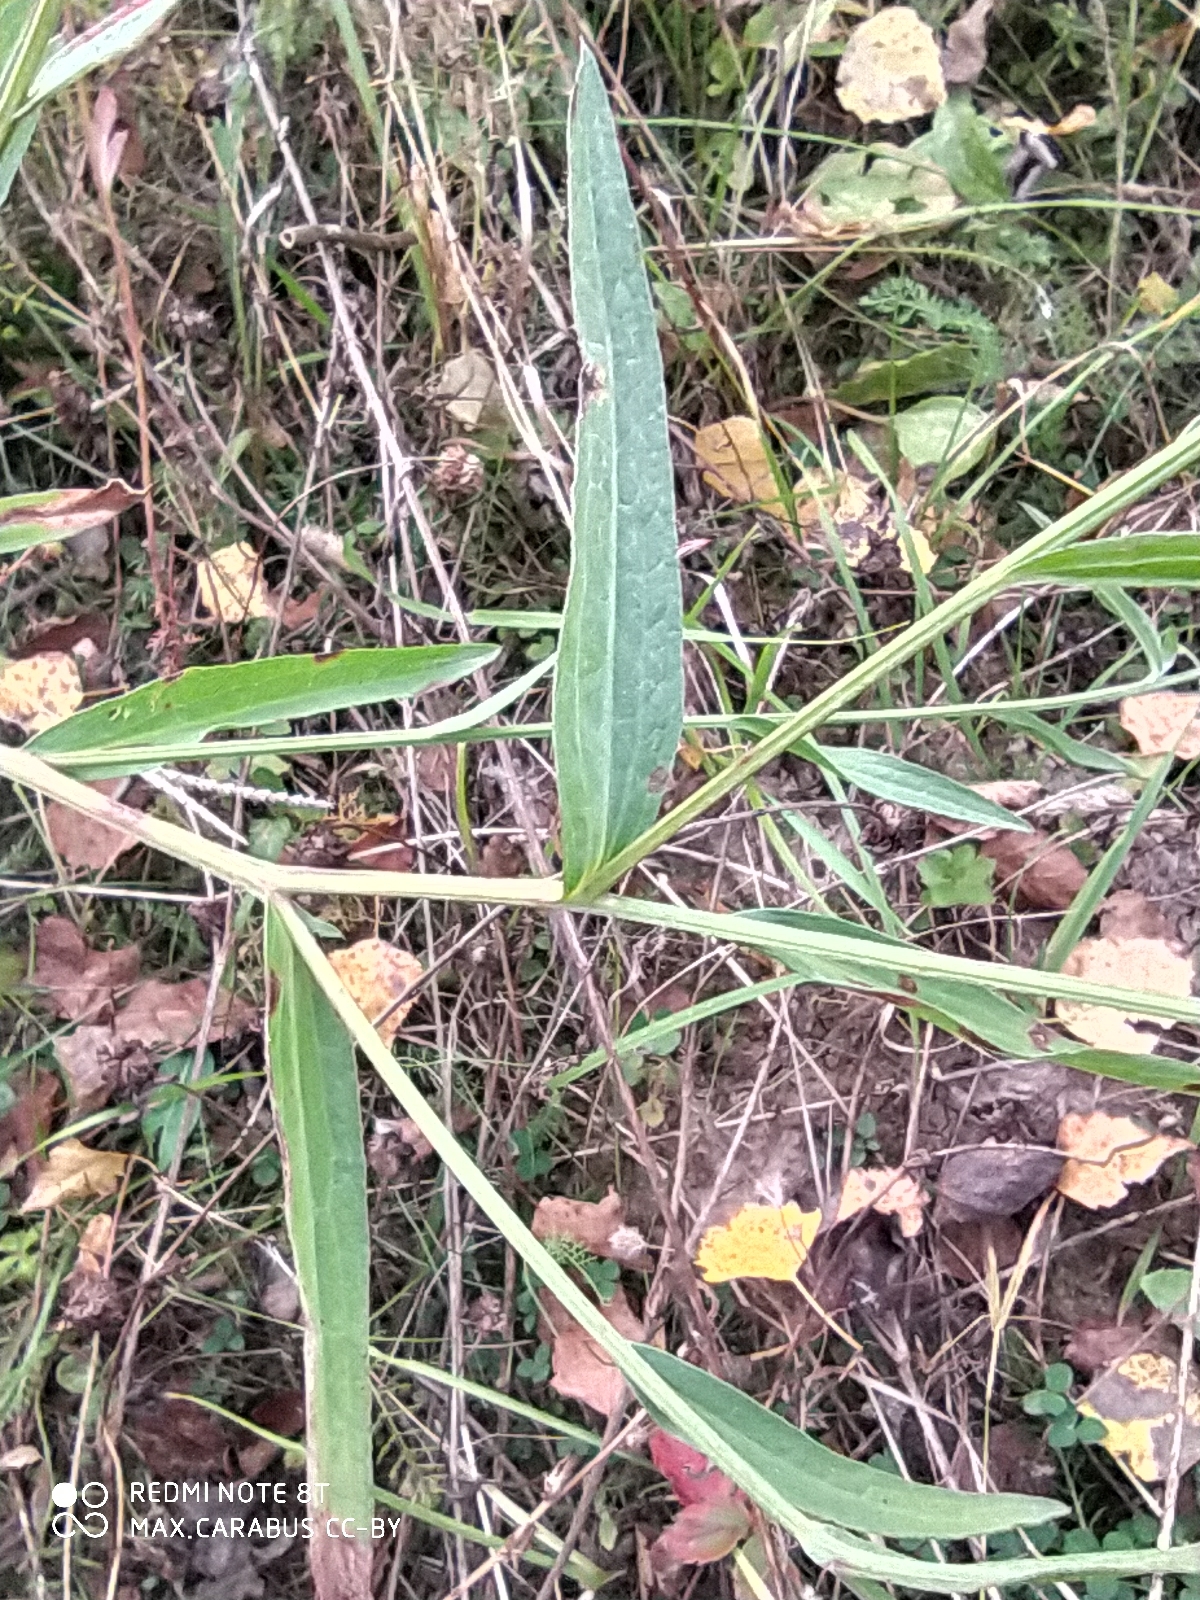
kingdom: Plantae
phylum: Tracheophyta
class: Magnoliopsida
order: Asterales
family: Asteraceae
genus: Centaurea
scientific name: Centaurea jacea
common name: Brown knapweed
